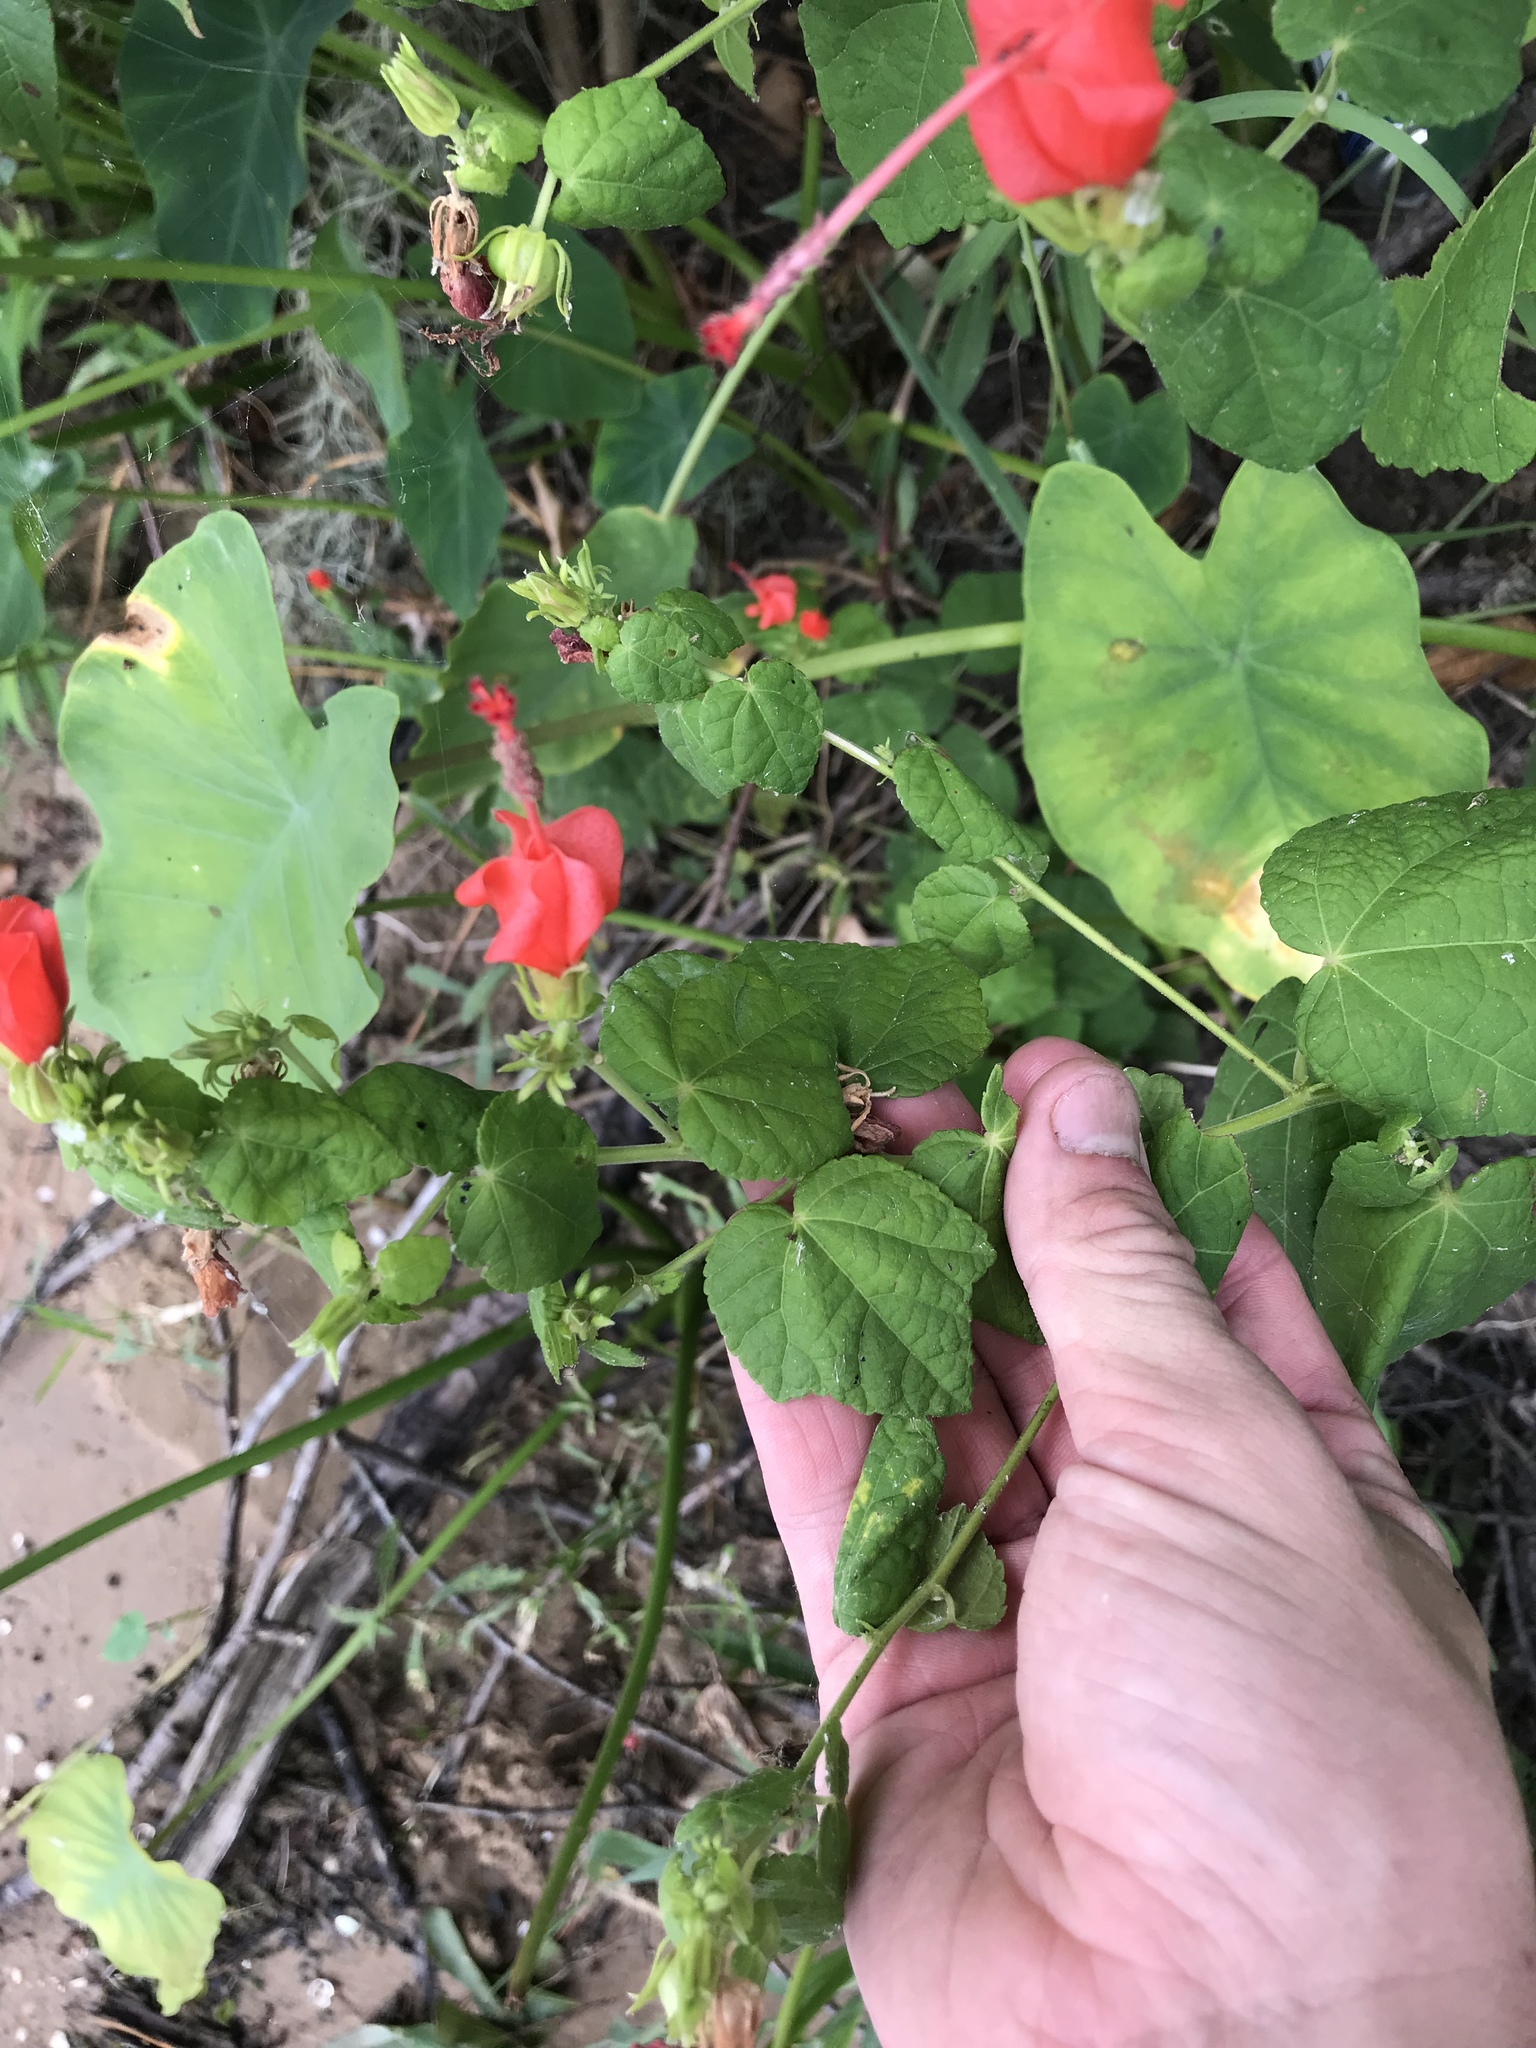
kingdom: Plantae
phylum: Tracheophyta
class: Magnoliopsida
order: Malvales
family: Malvaceae
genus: Malvaviscus
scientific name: Malvaviscus arboreus
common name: Wax mallow
